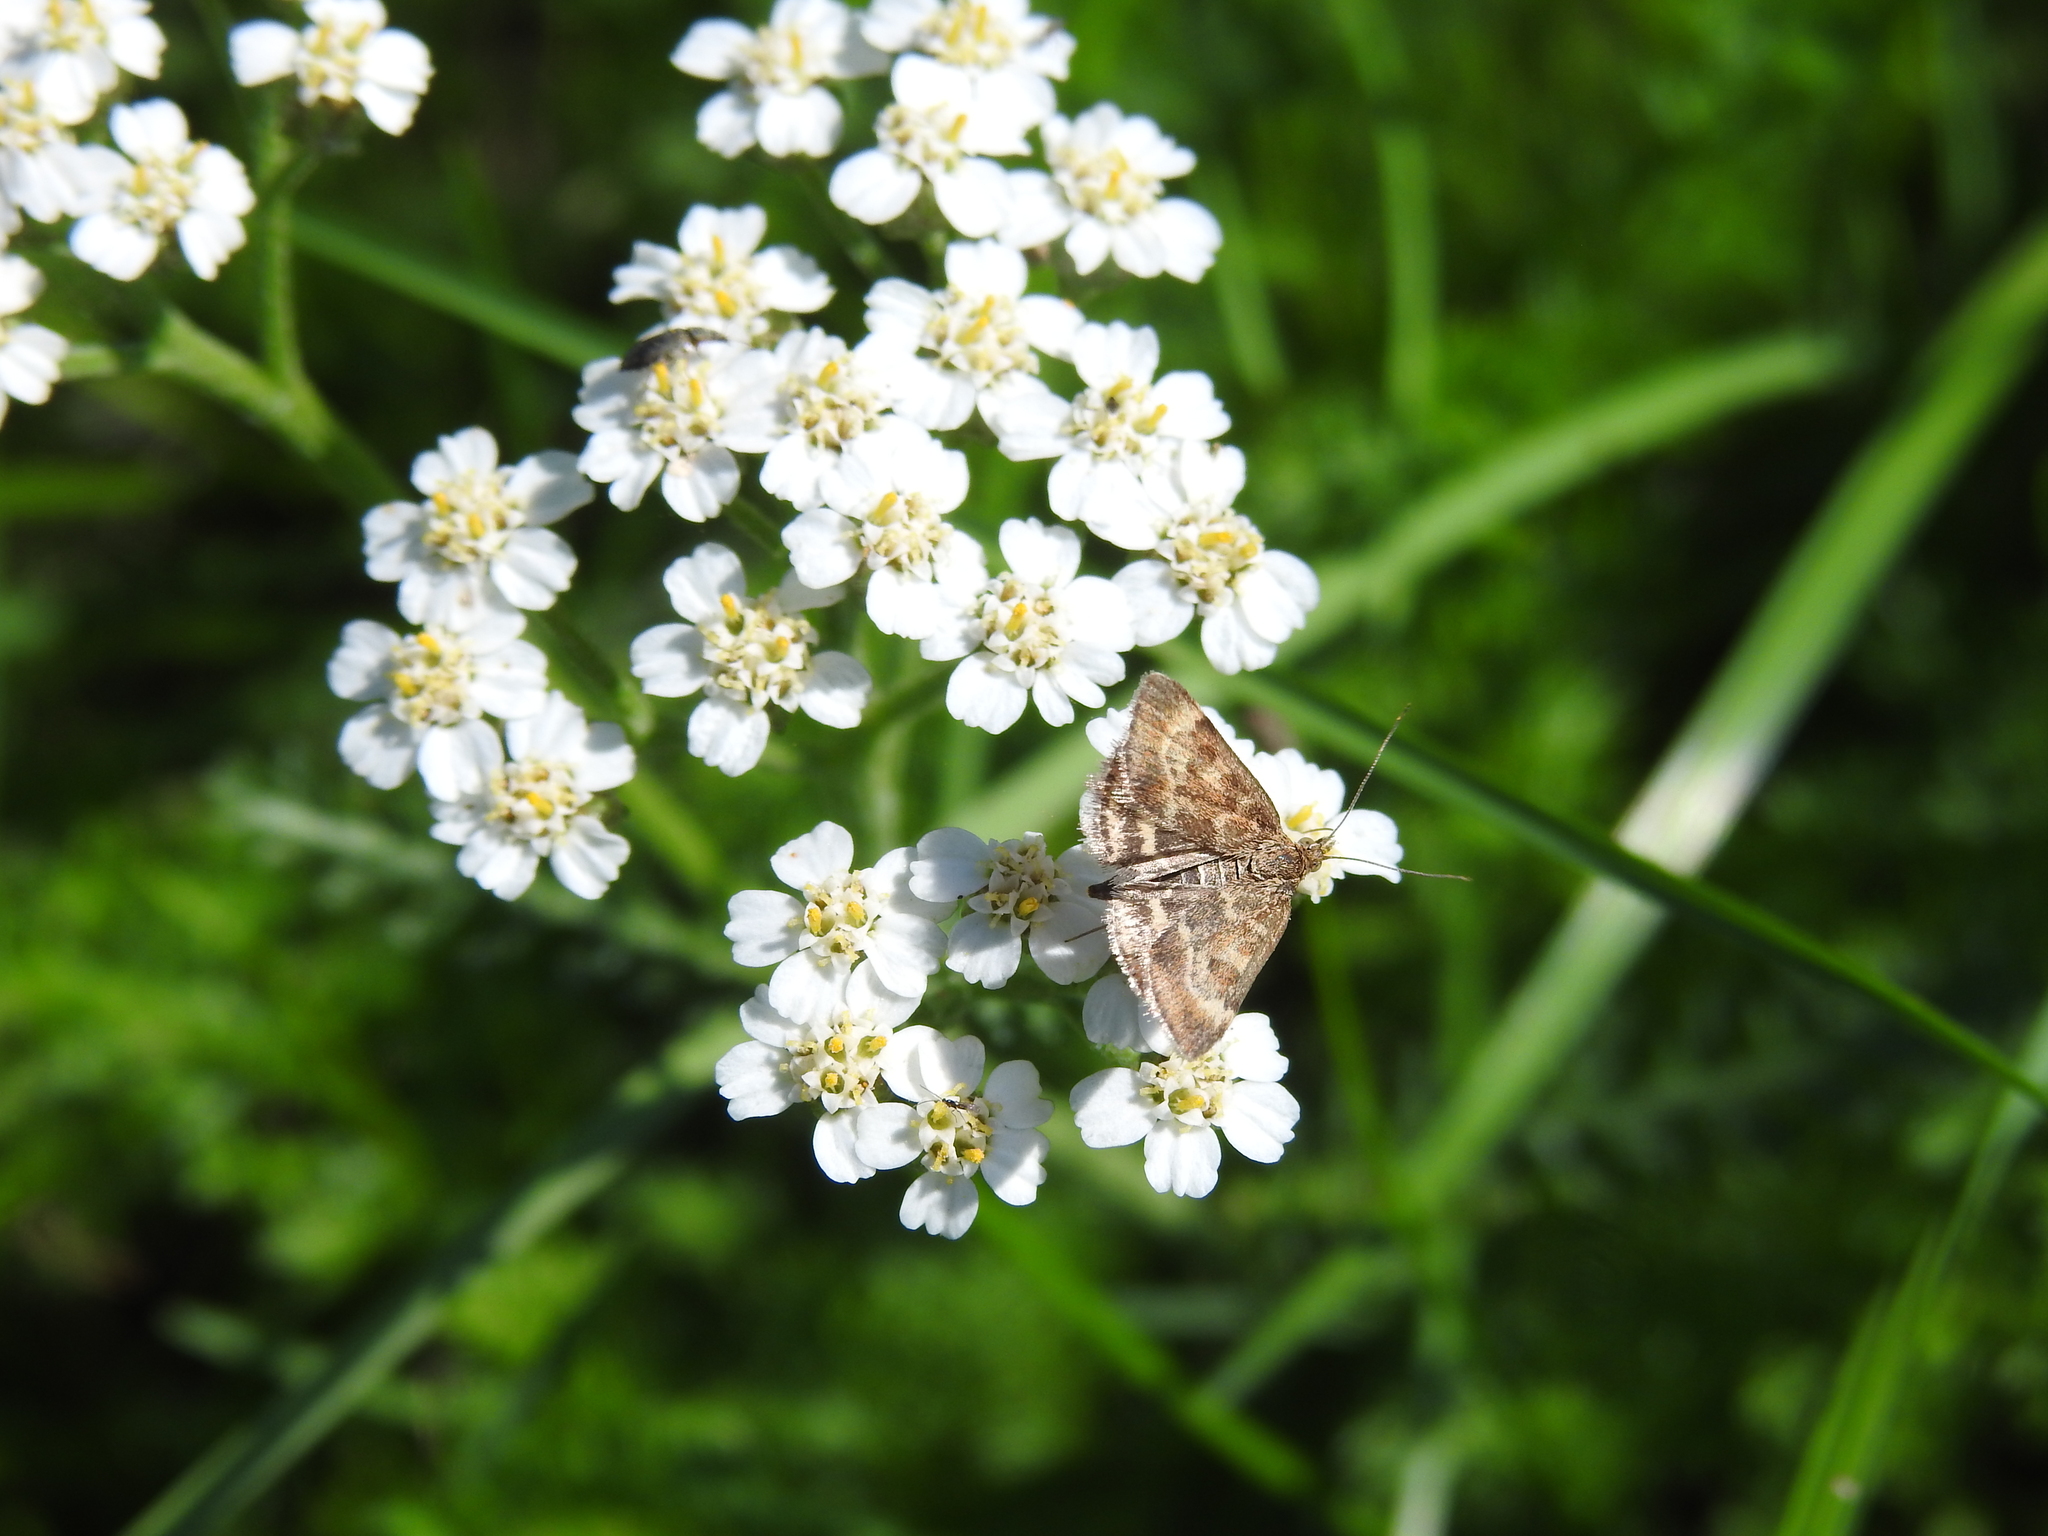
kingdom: Animalia
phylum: Arthropoda
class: Insecta
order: Lepidoptera
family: Crambidae
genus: Pyrausta
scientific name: Pyrausta despicata
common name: Straw-barred pearl
